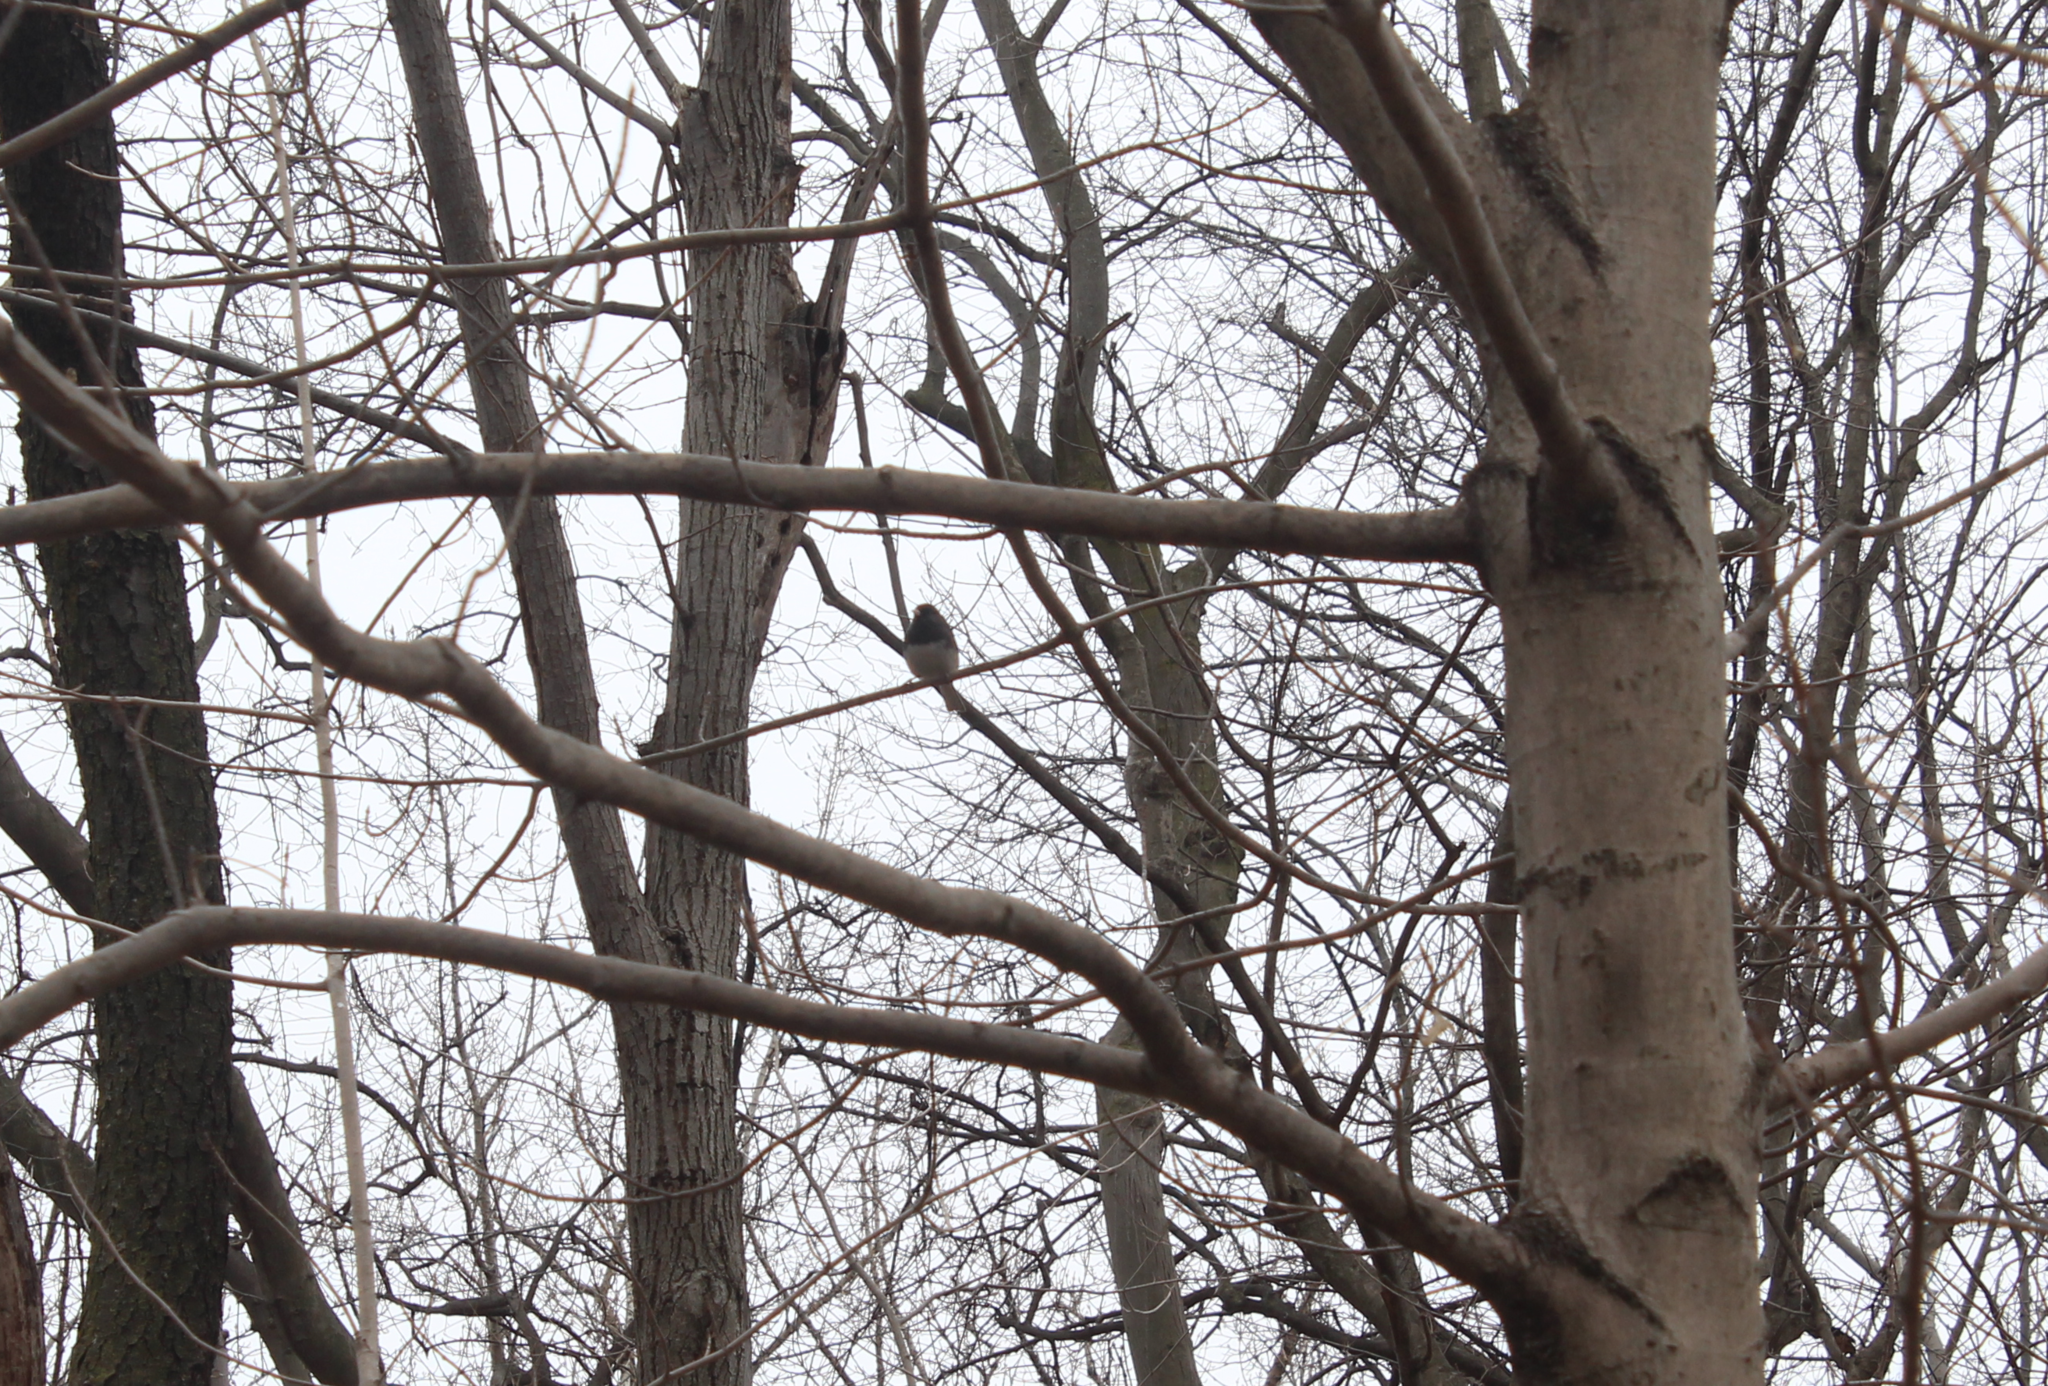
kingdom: Animalia
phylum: Chordata
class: Aves
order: Passeriformes
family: Passerellidae
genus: Junco
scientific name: Junco hyemalis
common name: Dark-eyed junco
